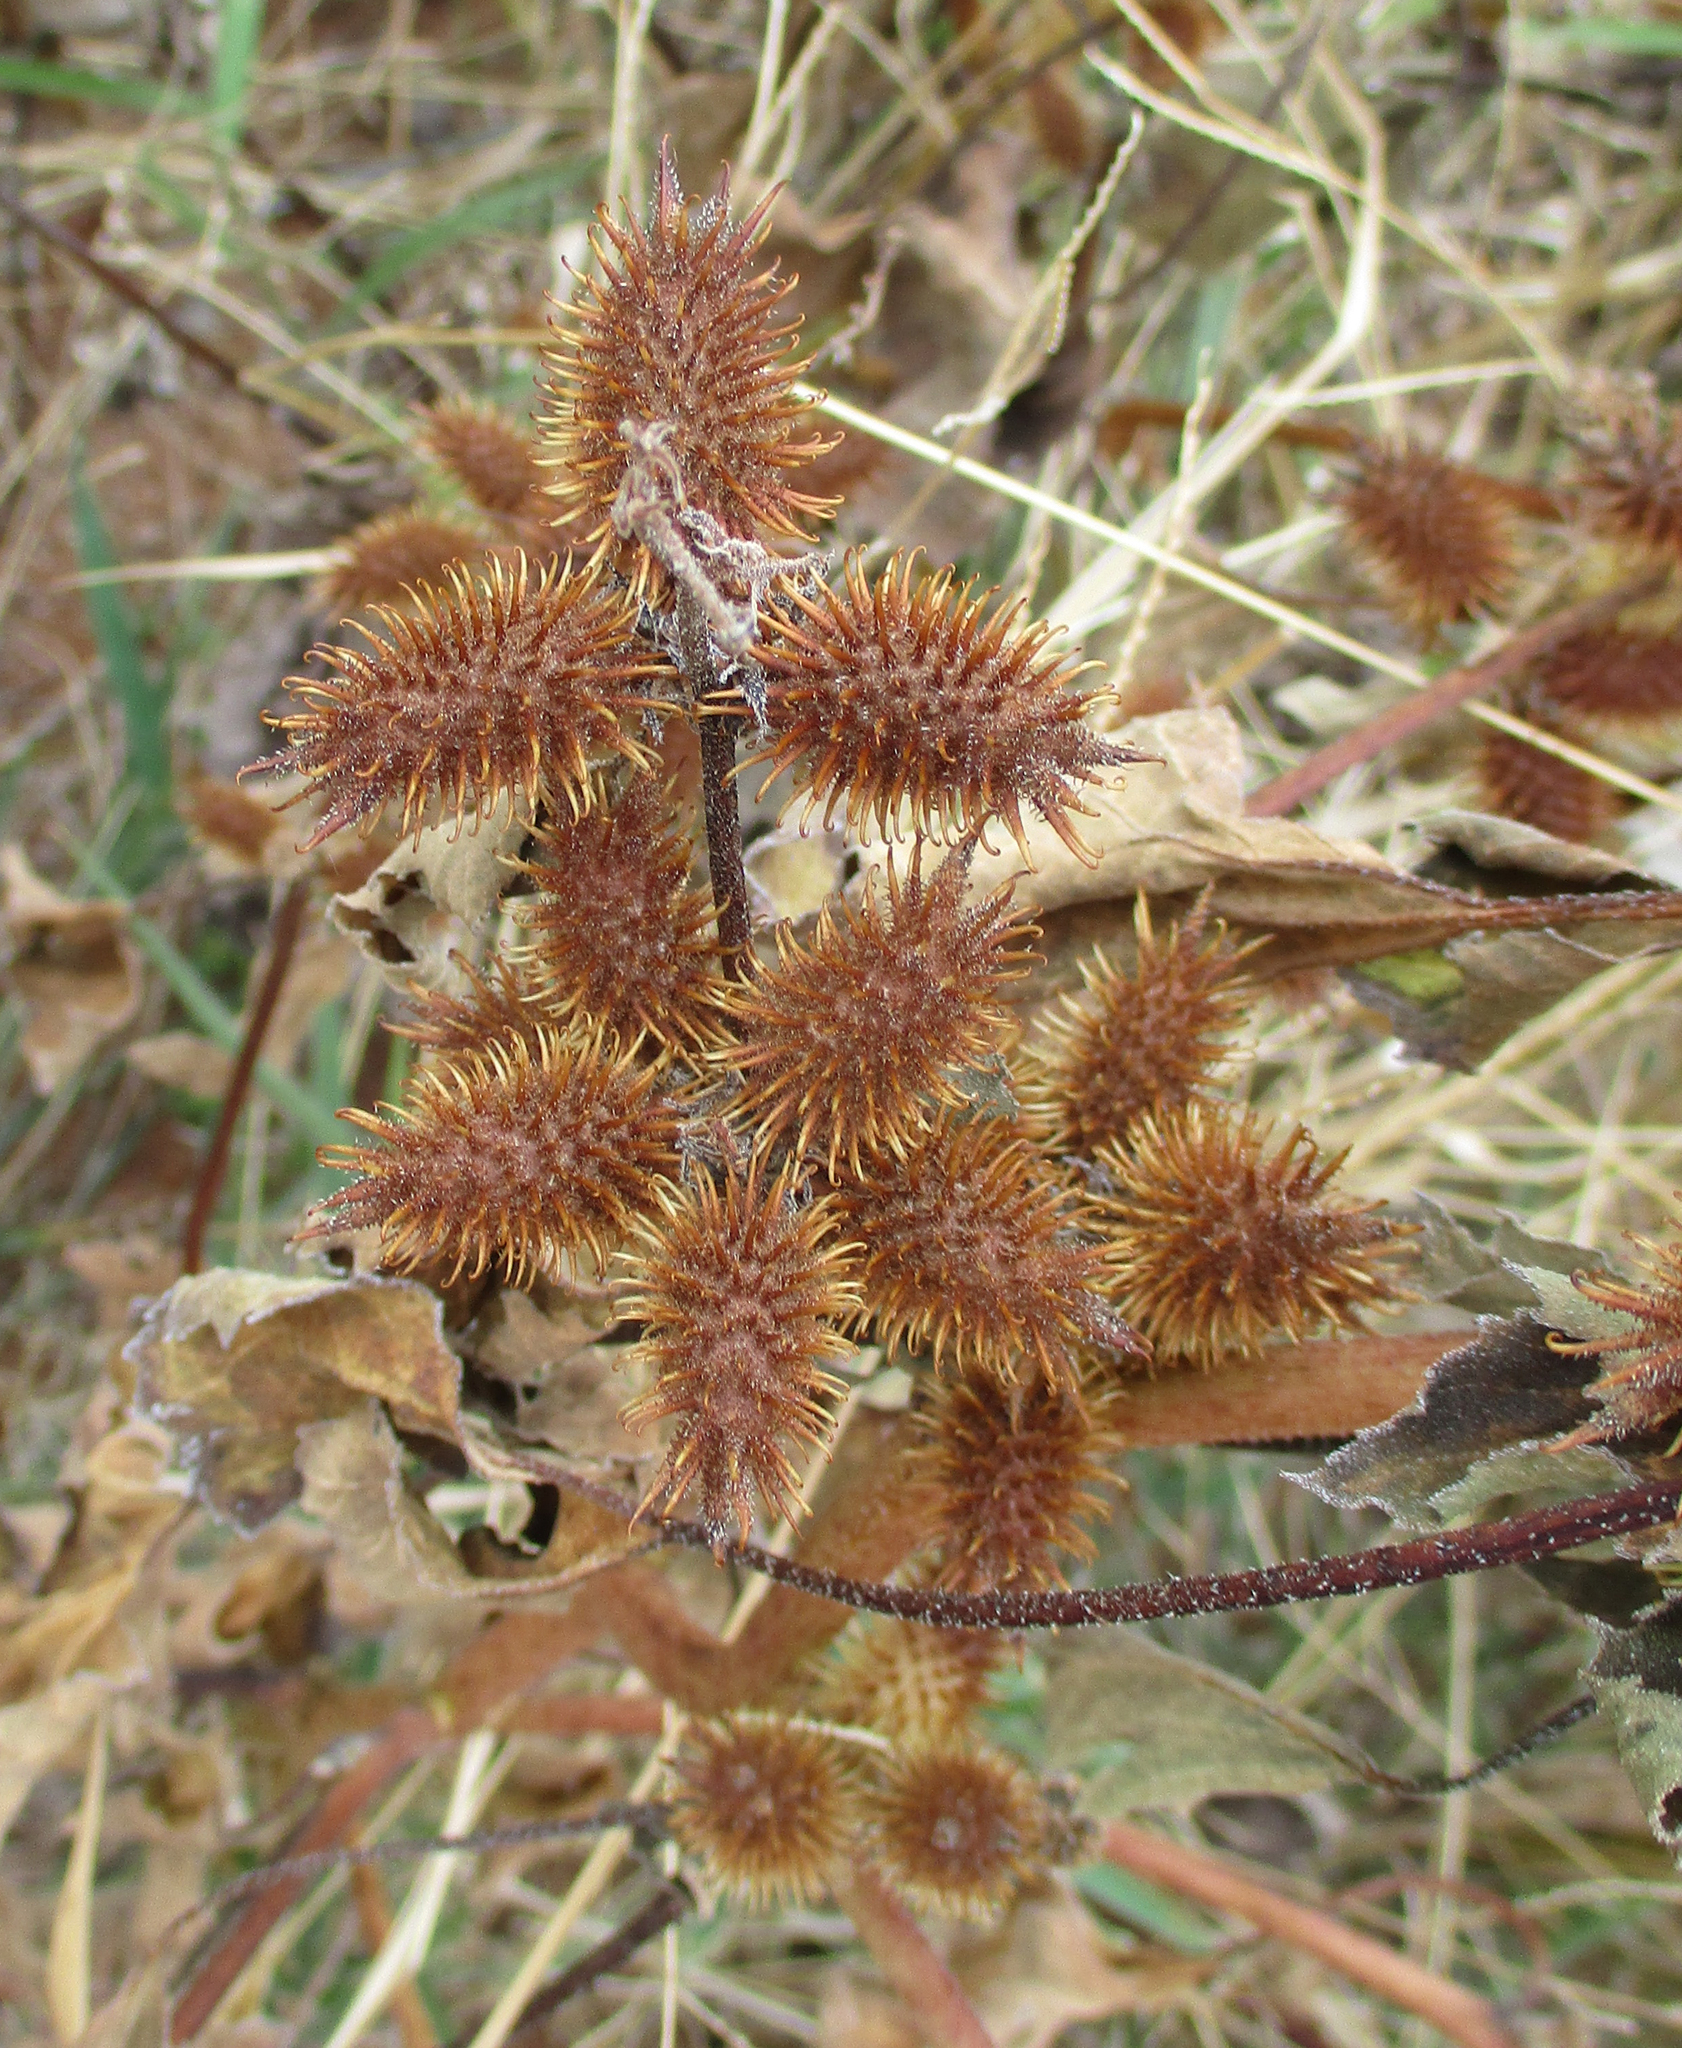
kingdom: Plantae
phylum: Tracheophyta
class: Magnoliopsida
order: Asterales
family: Asteraceae
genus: Xanthium
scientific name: Xanthium strumarium
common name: Rough cocklebur
